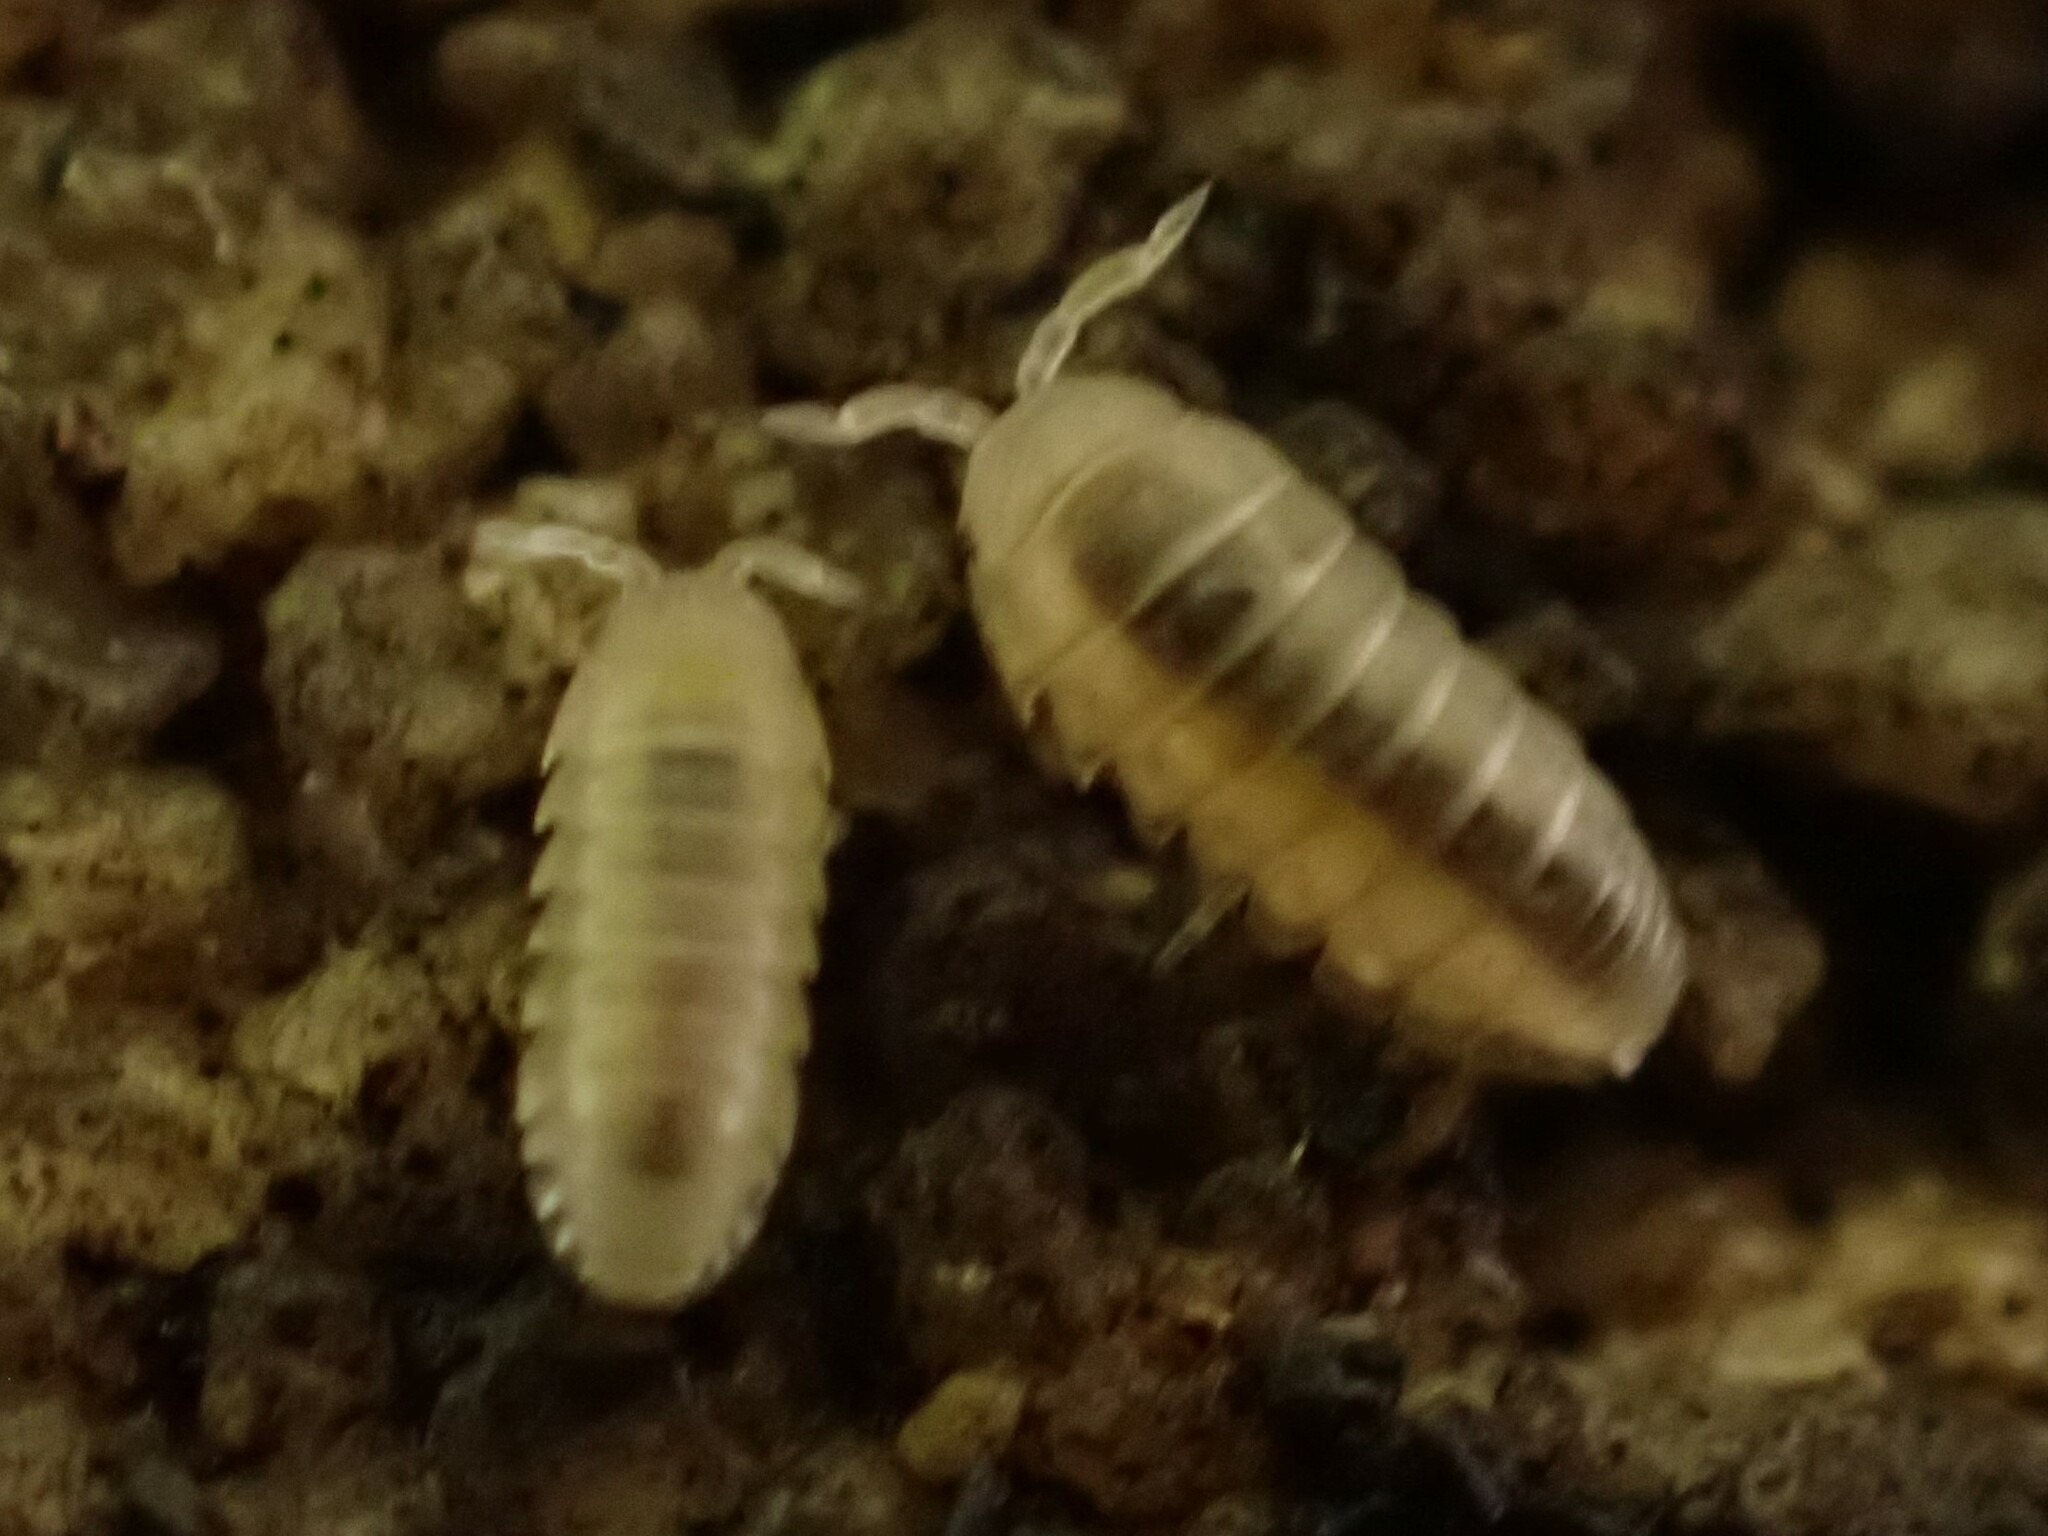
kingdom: Animalia
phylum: Arthropoda
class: Malacostraca
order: Isopoda
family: Armadillidiidae
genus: Armadillidium
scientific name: Armadillidium vulgare
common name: Common pill woodlouse
